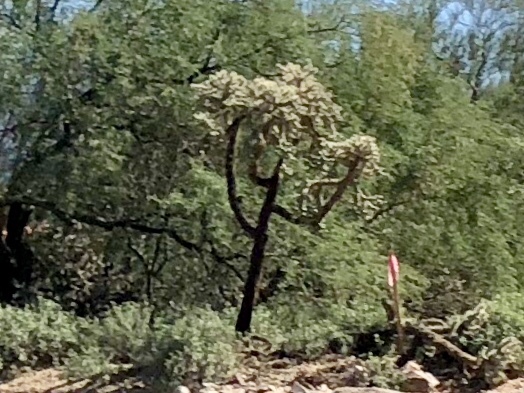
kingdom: Plantae
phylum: Tracheophyta
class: Magnoliopsida
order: Caryophyllales
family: Cactaceae
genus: Cylindropuntia
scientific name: Cylindropuntia fulgida
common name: Jumping cholla
